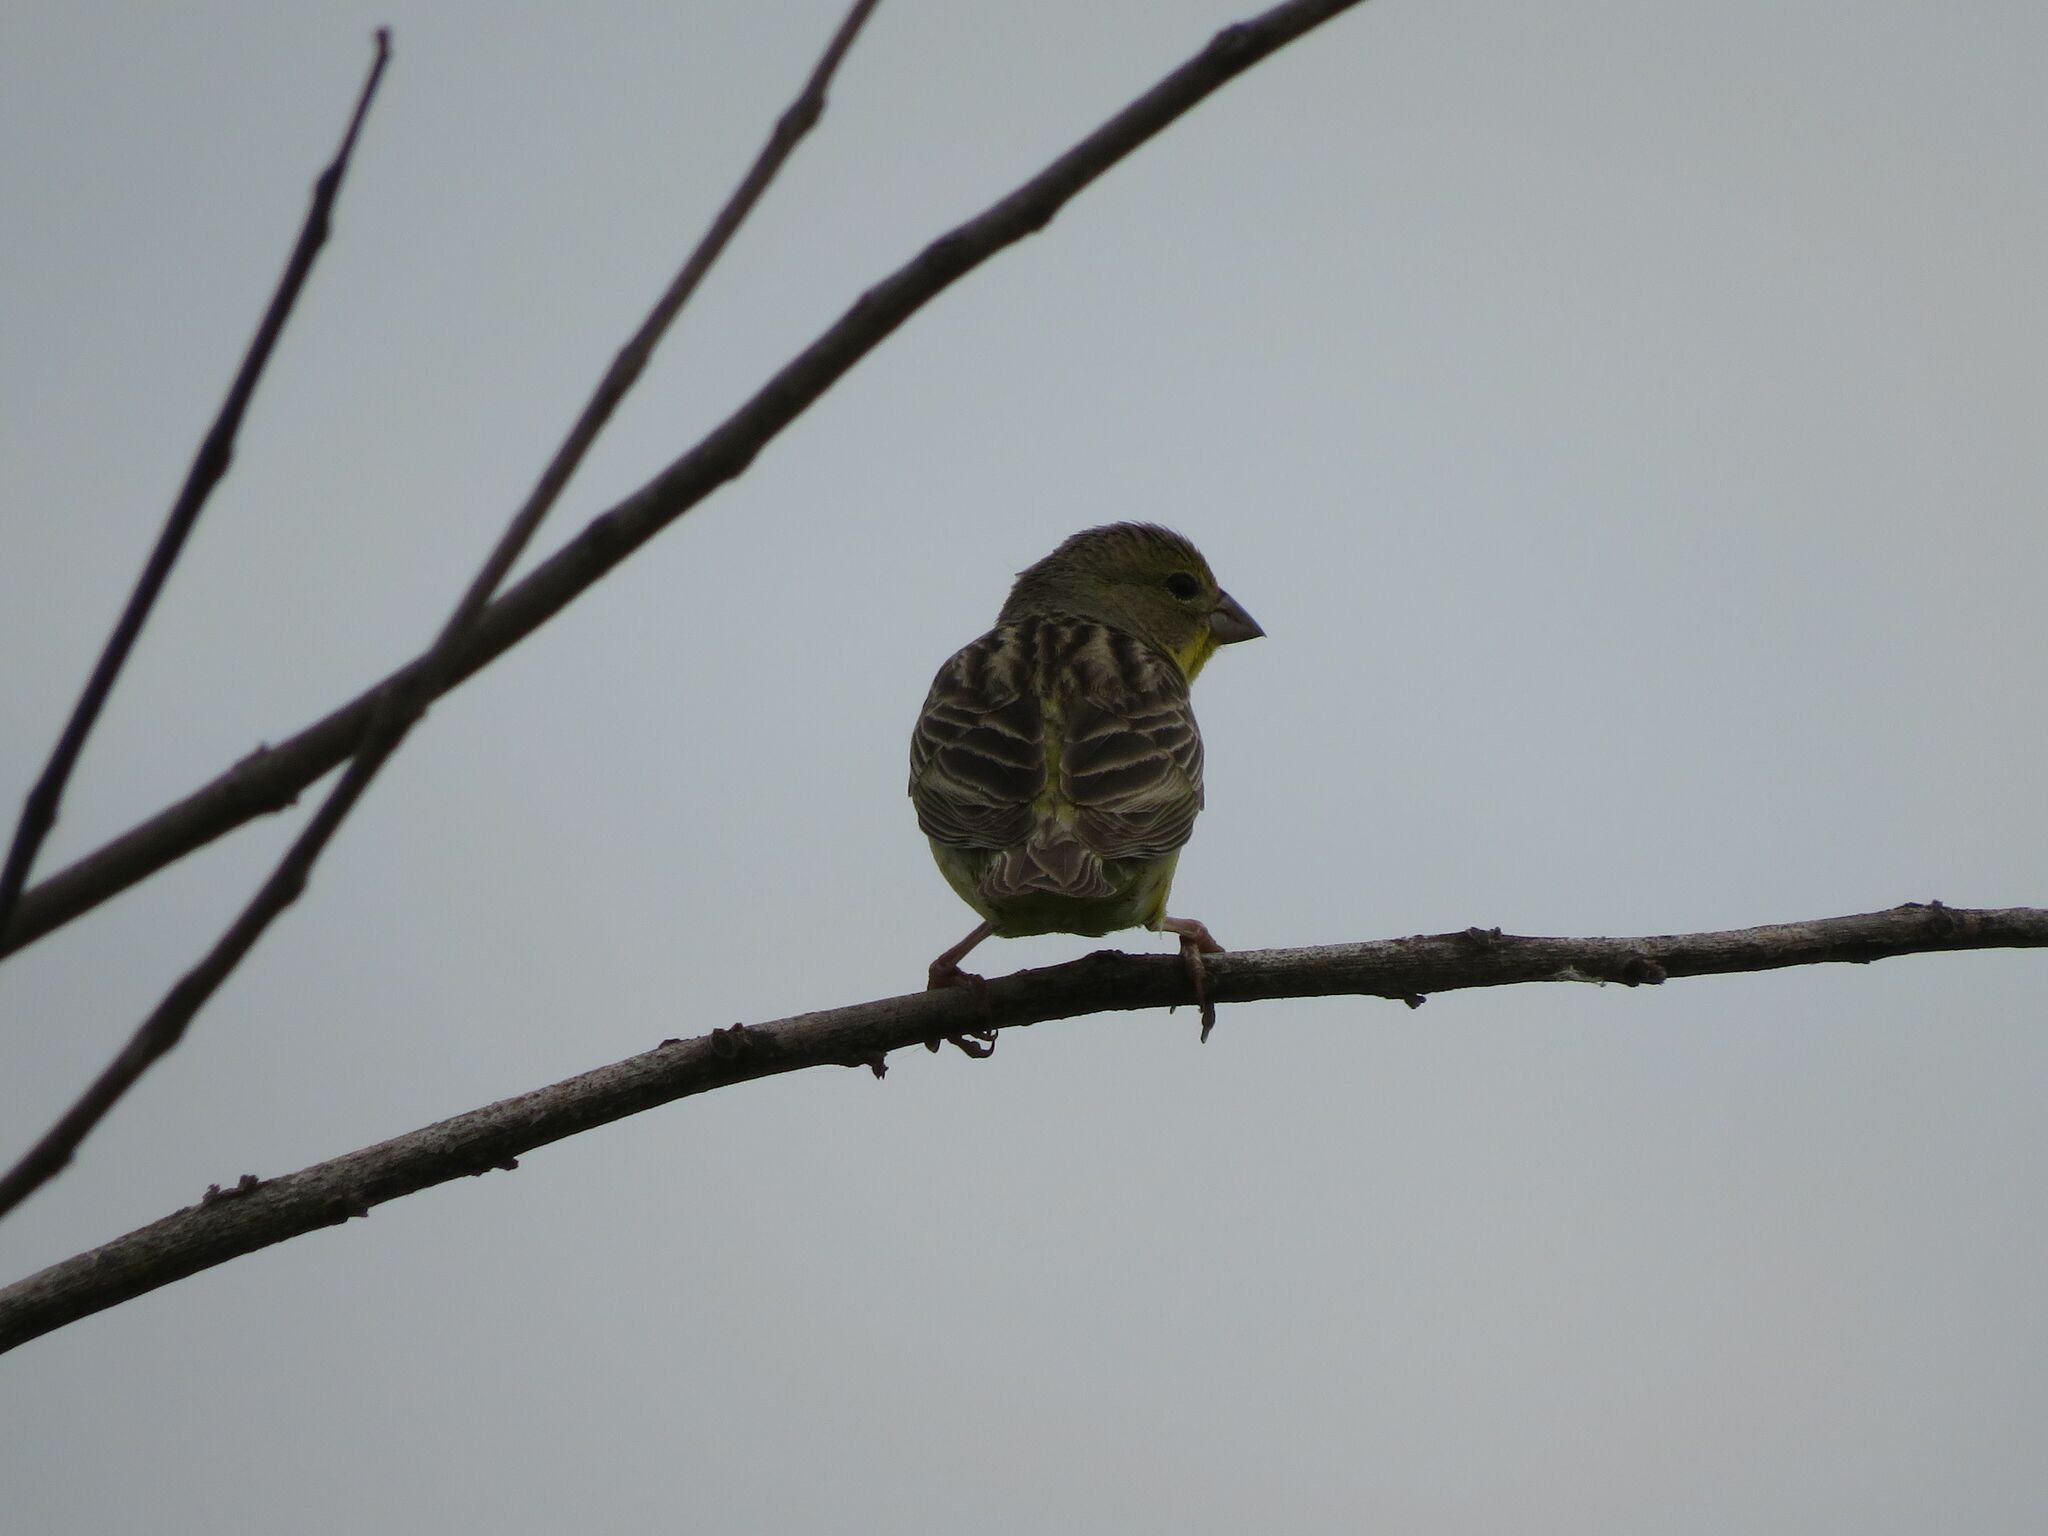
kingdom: Animalia
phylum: Chordata
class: Aves
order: Passeriformes
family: Thraupidae
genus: Sicalis
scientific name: Sicalis luteola
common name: Grassland yellow-finch
